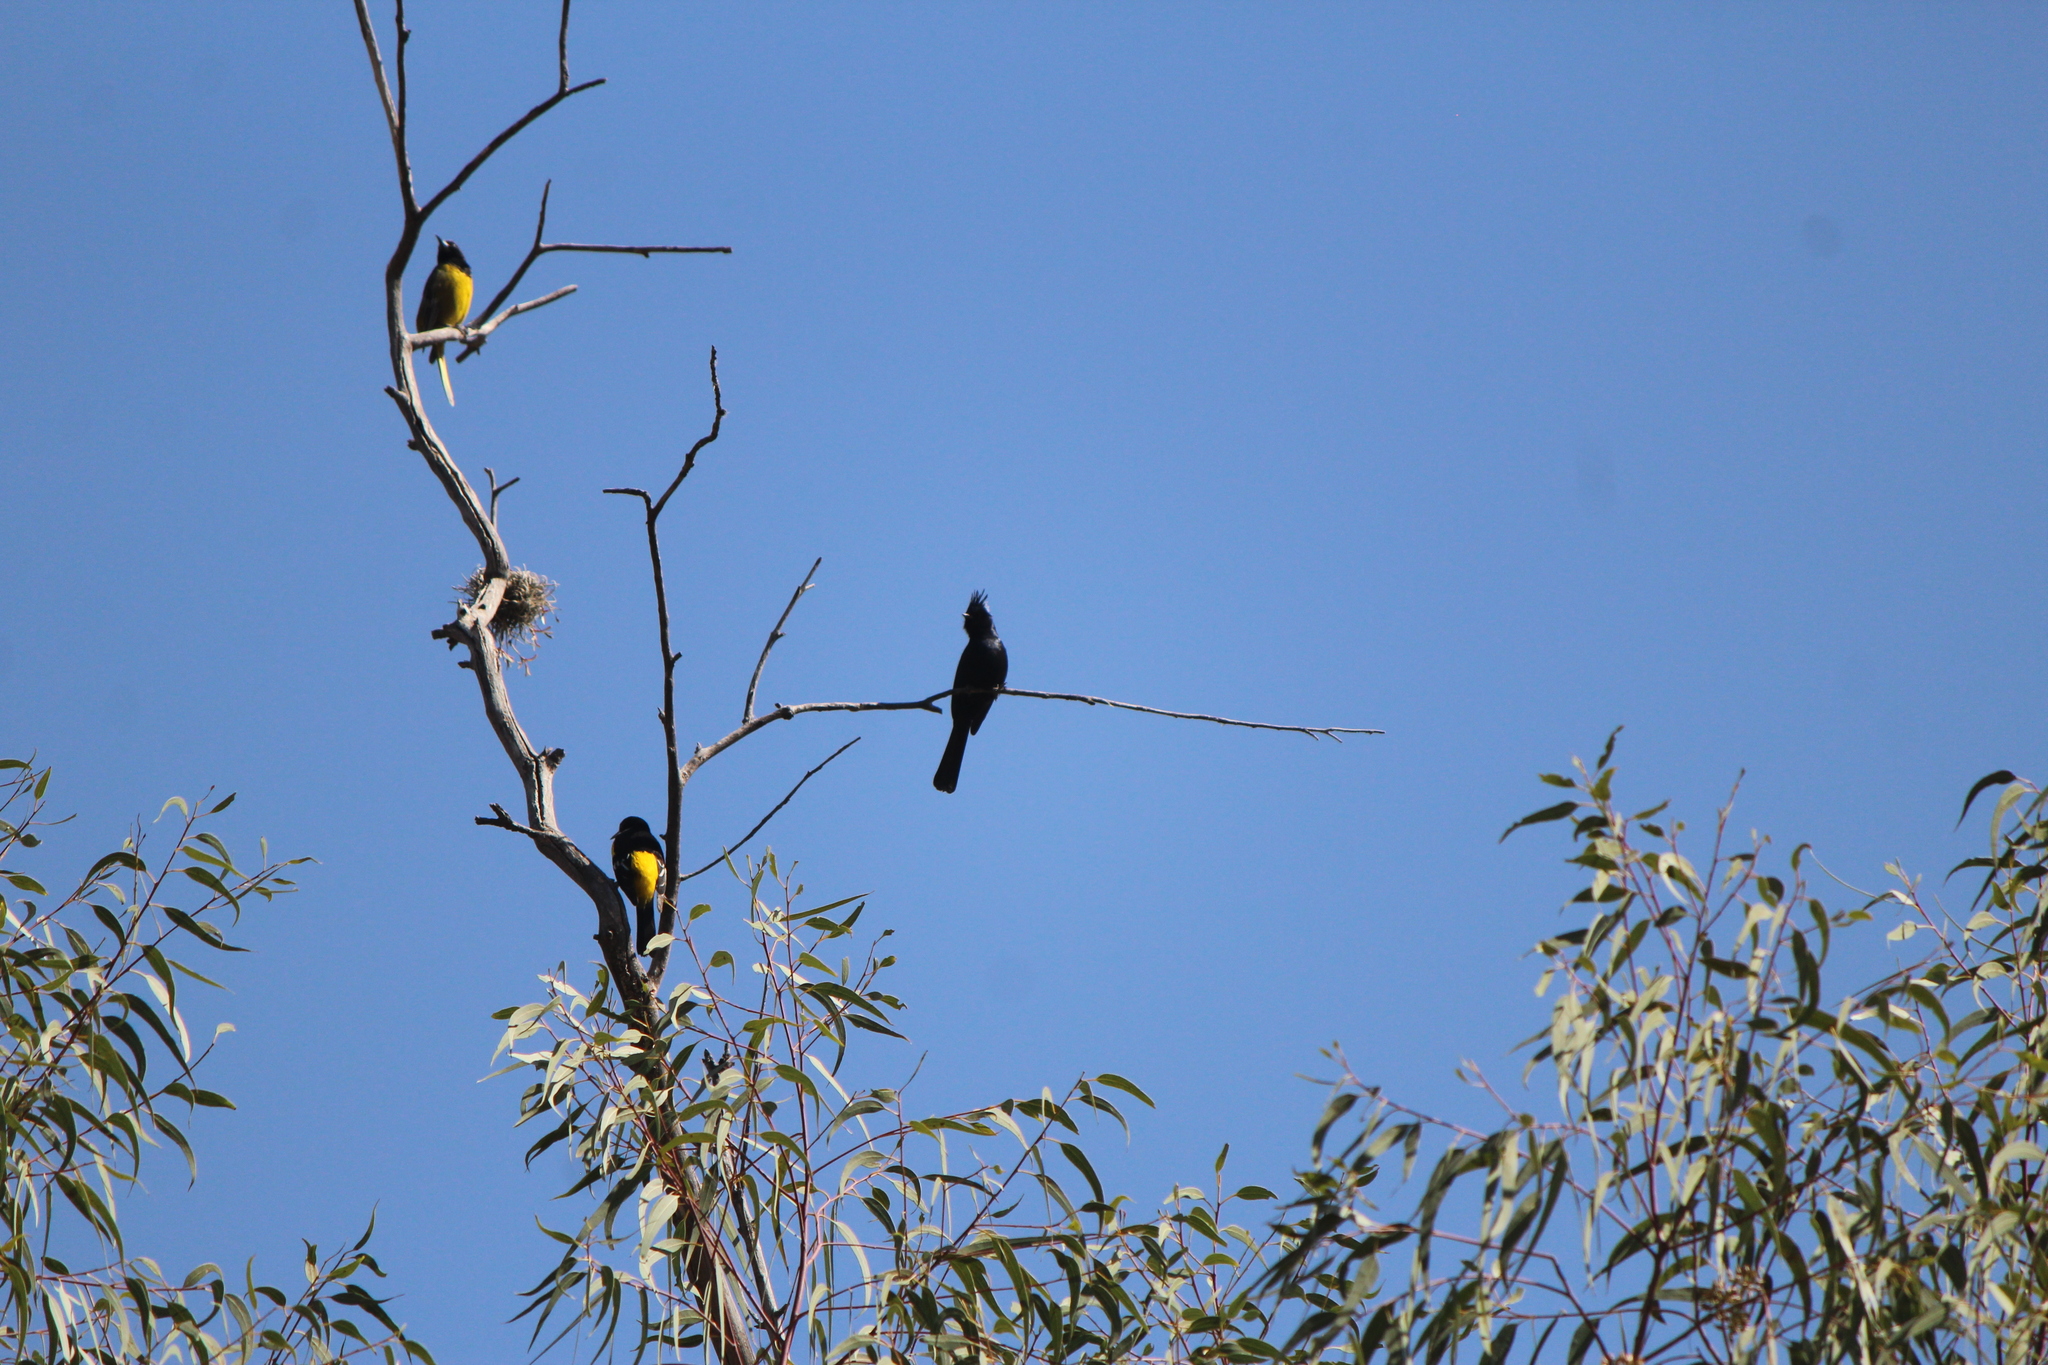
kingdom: Animalia
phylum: Chordata
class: Aves
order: Passeriformes
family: Ptilogonatidae
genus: Phainopepla
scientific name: Phainopepla nitens
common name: Phainopepla
